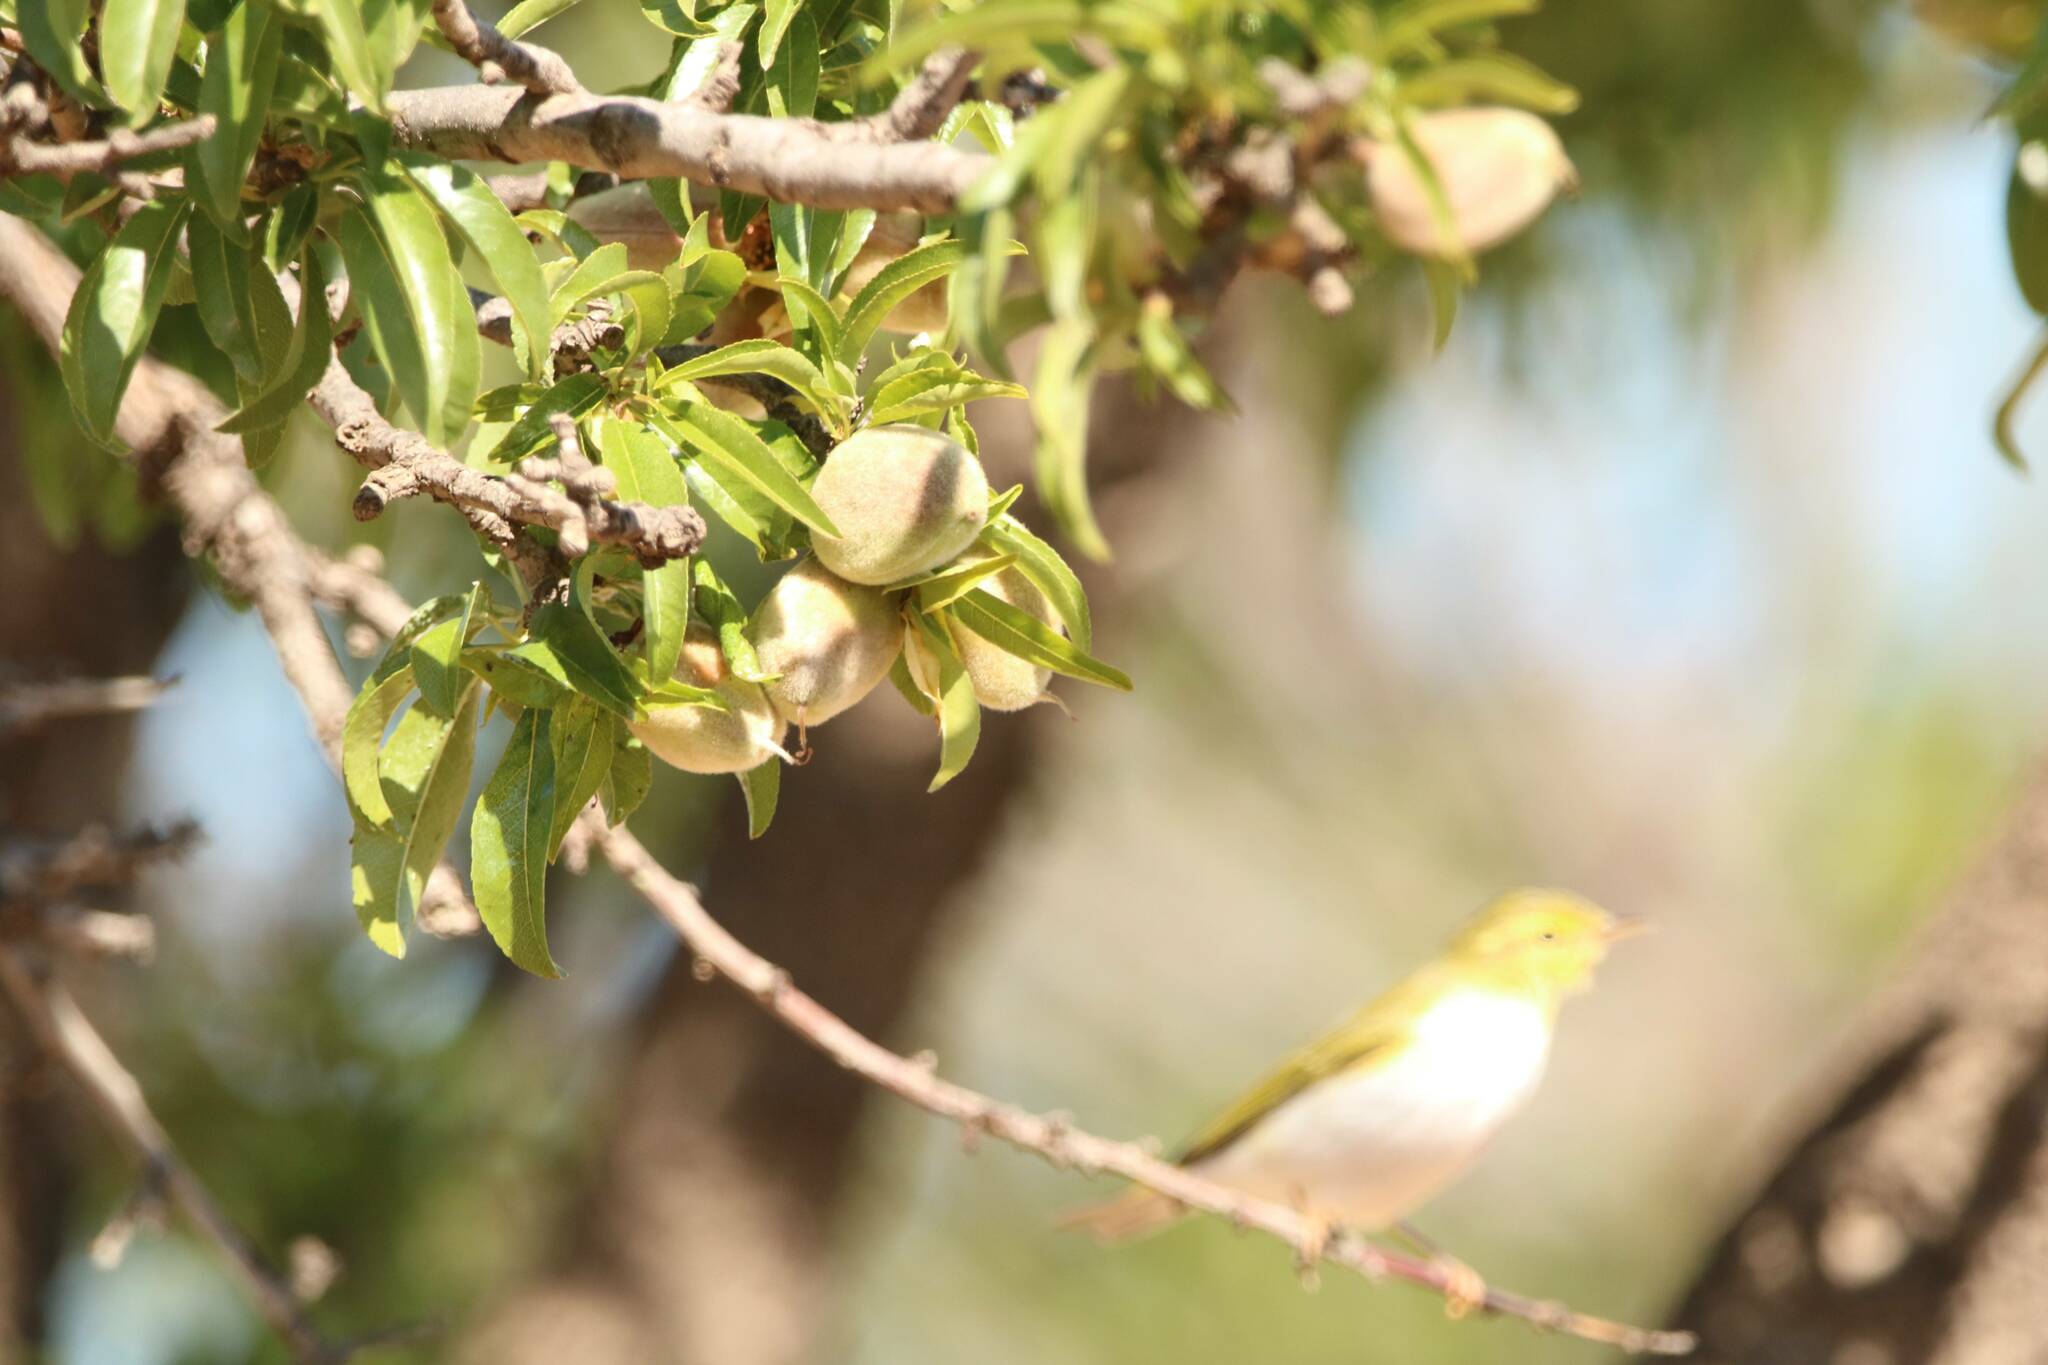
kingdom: Animalia
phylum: Chordata
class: Aves
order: Passeriformes
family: Phylloscopidae
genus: Phylloscopus
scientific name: Phylloscopus sibillatrix
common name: Wood warbler
